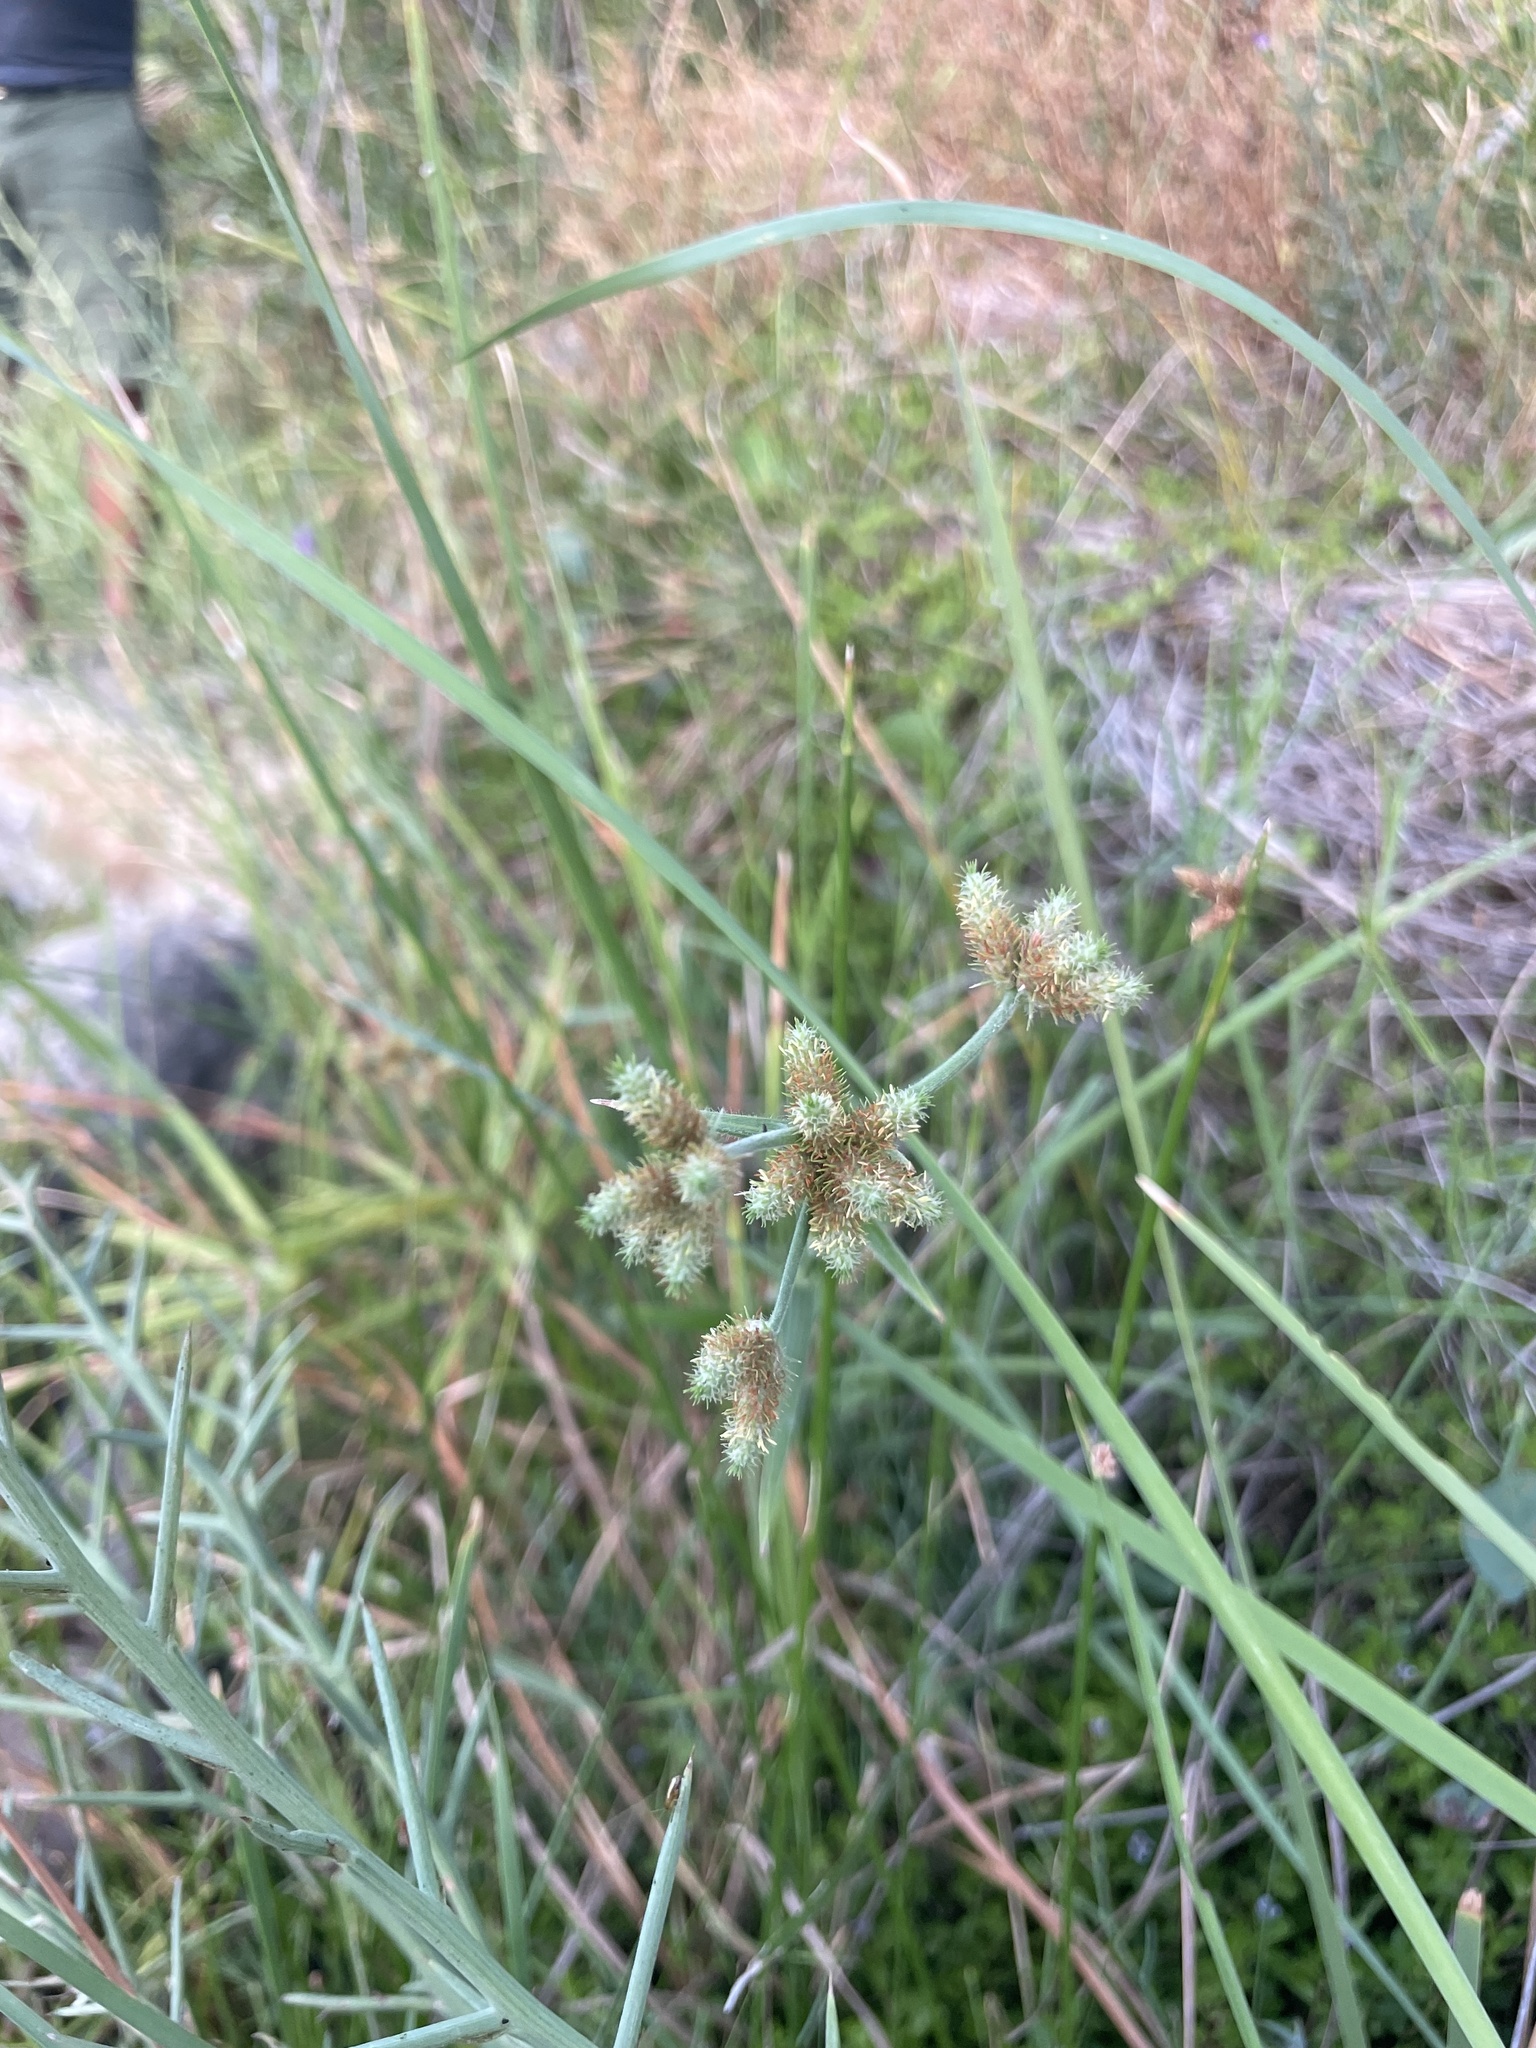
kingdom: Plantae
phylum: Tracheophyta
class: Liliopsida
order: Poales
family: Cyperaceae
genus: Fuirena
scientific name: Fuirena simplex
